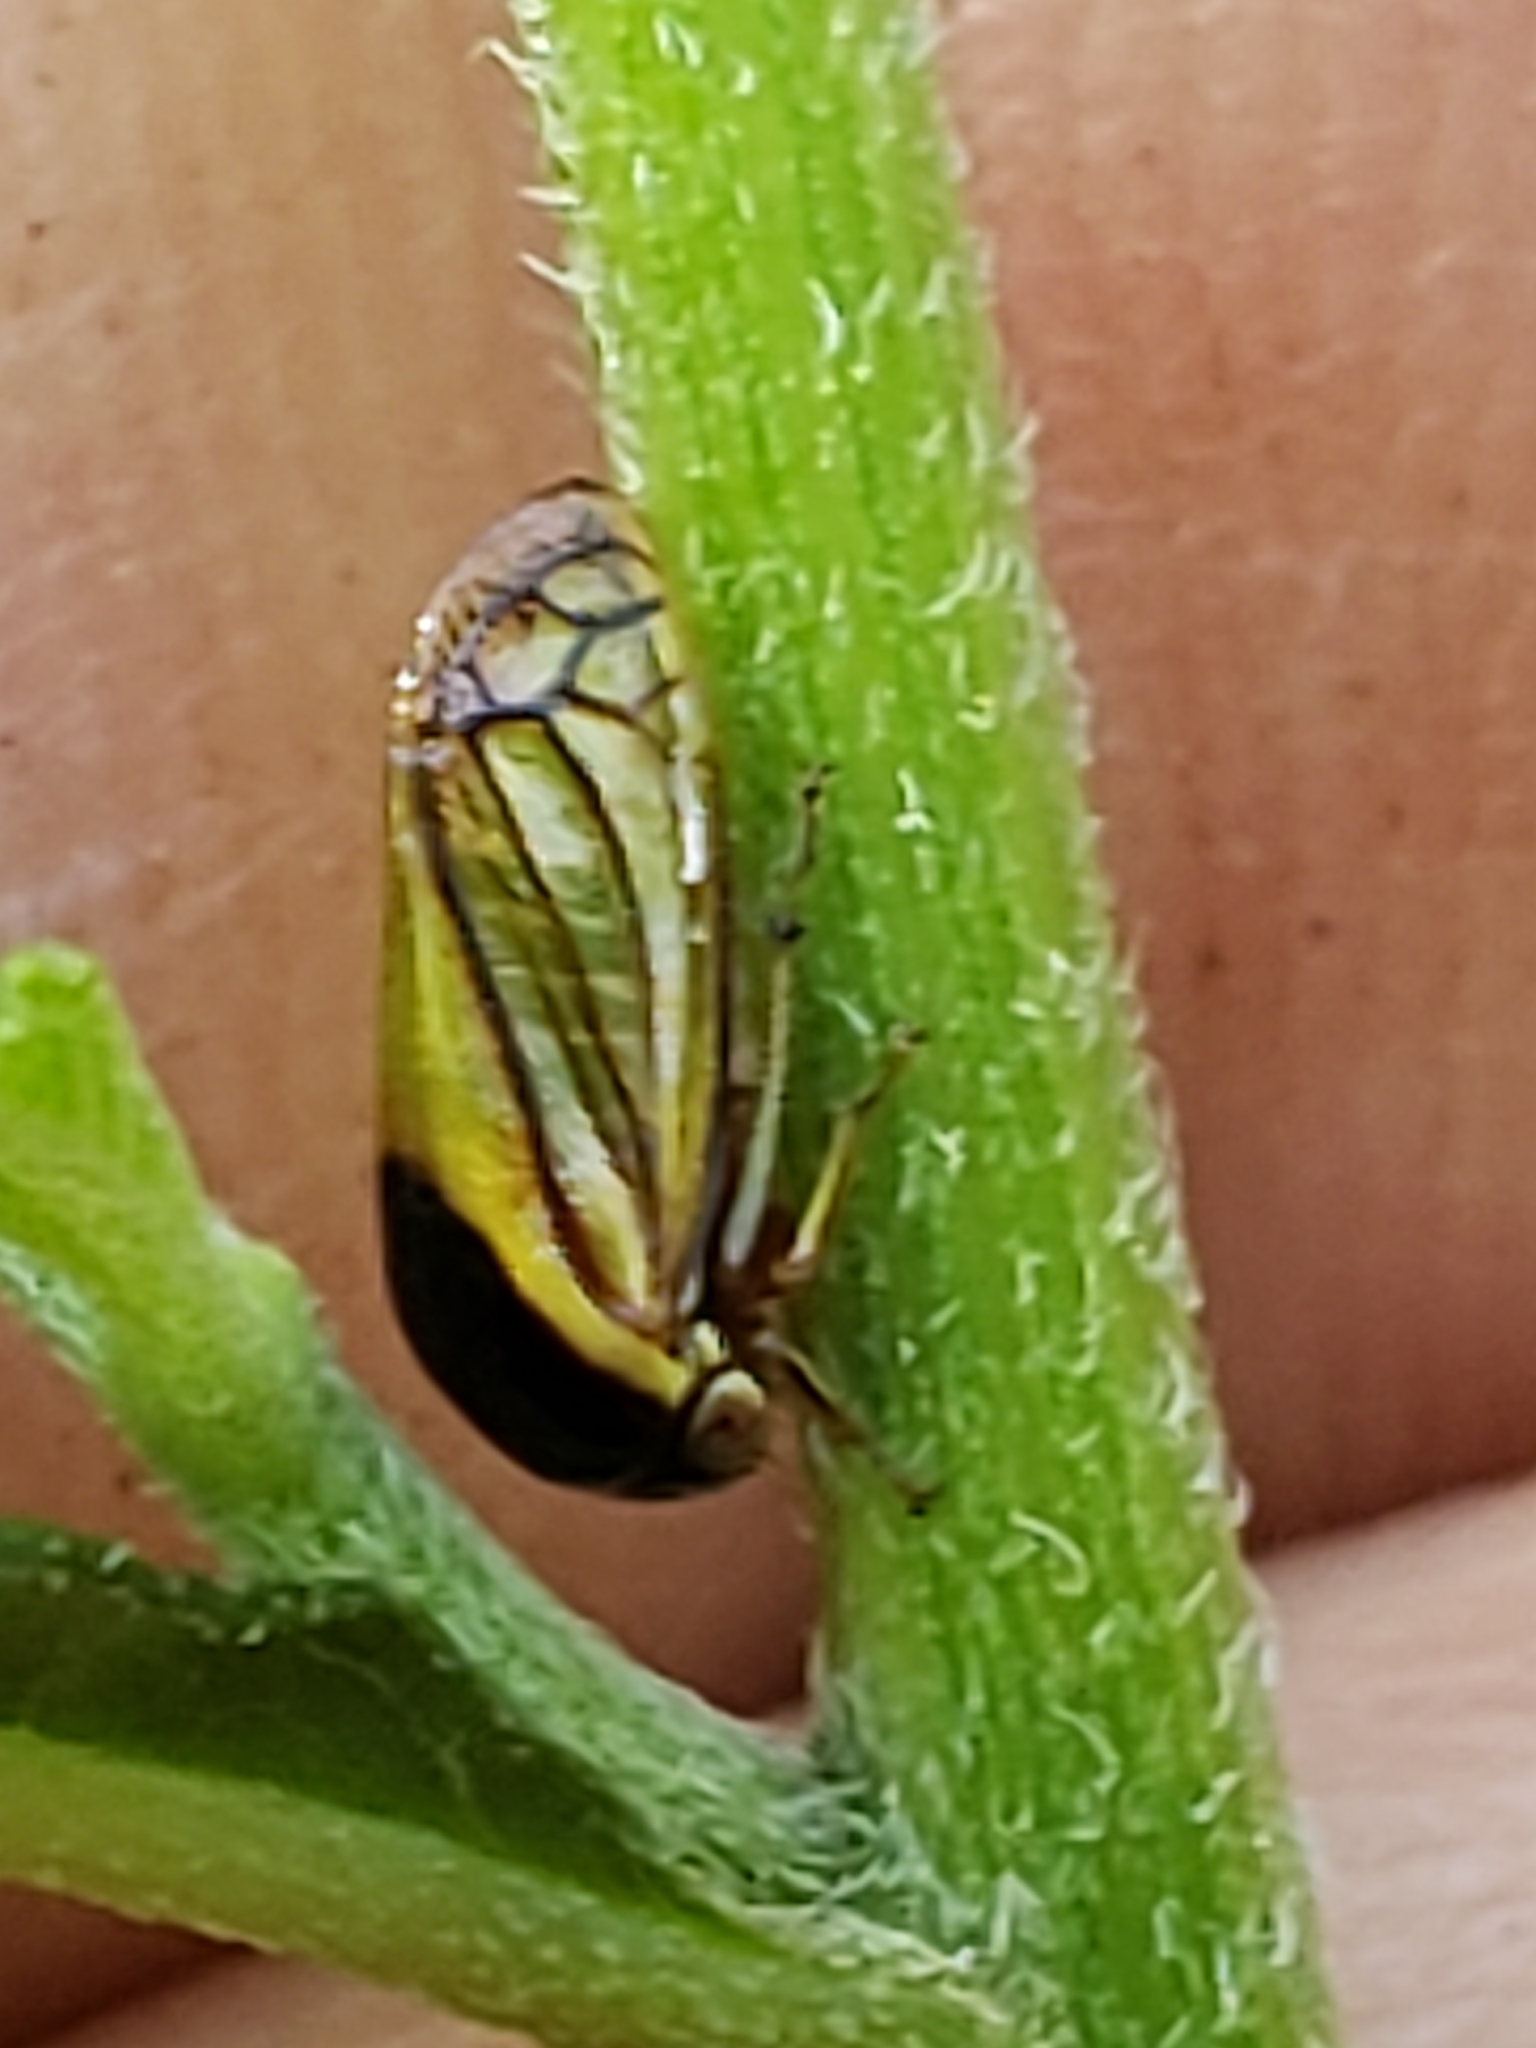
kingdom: Animalia
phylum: Arthropoda
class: Insecta
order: Hemiptera
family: Membracidae
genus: Acutalis
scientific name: Acutalis tartarea
